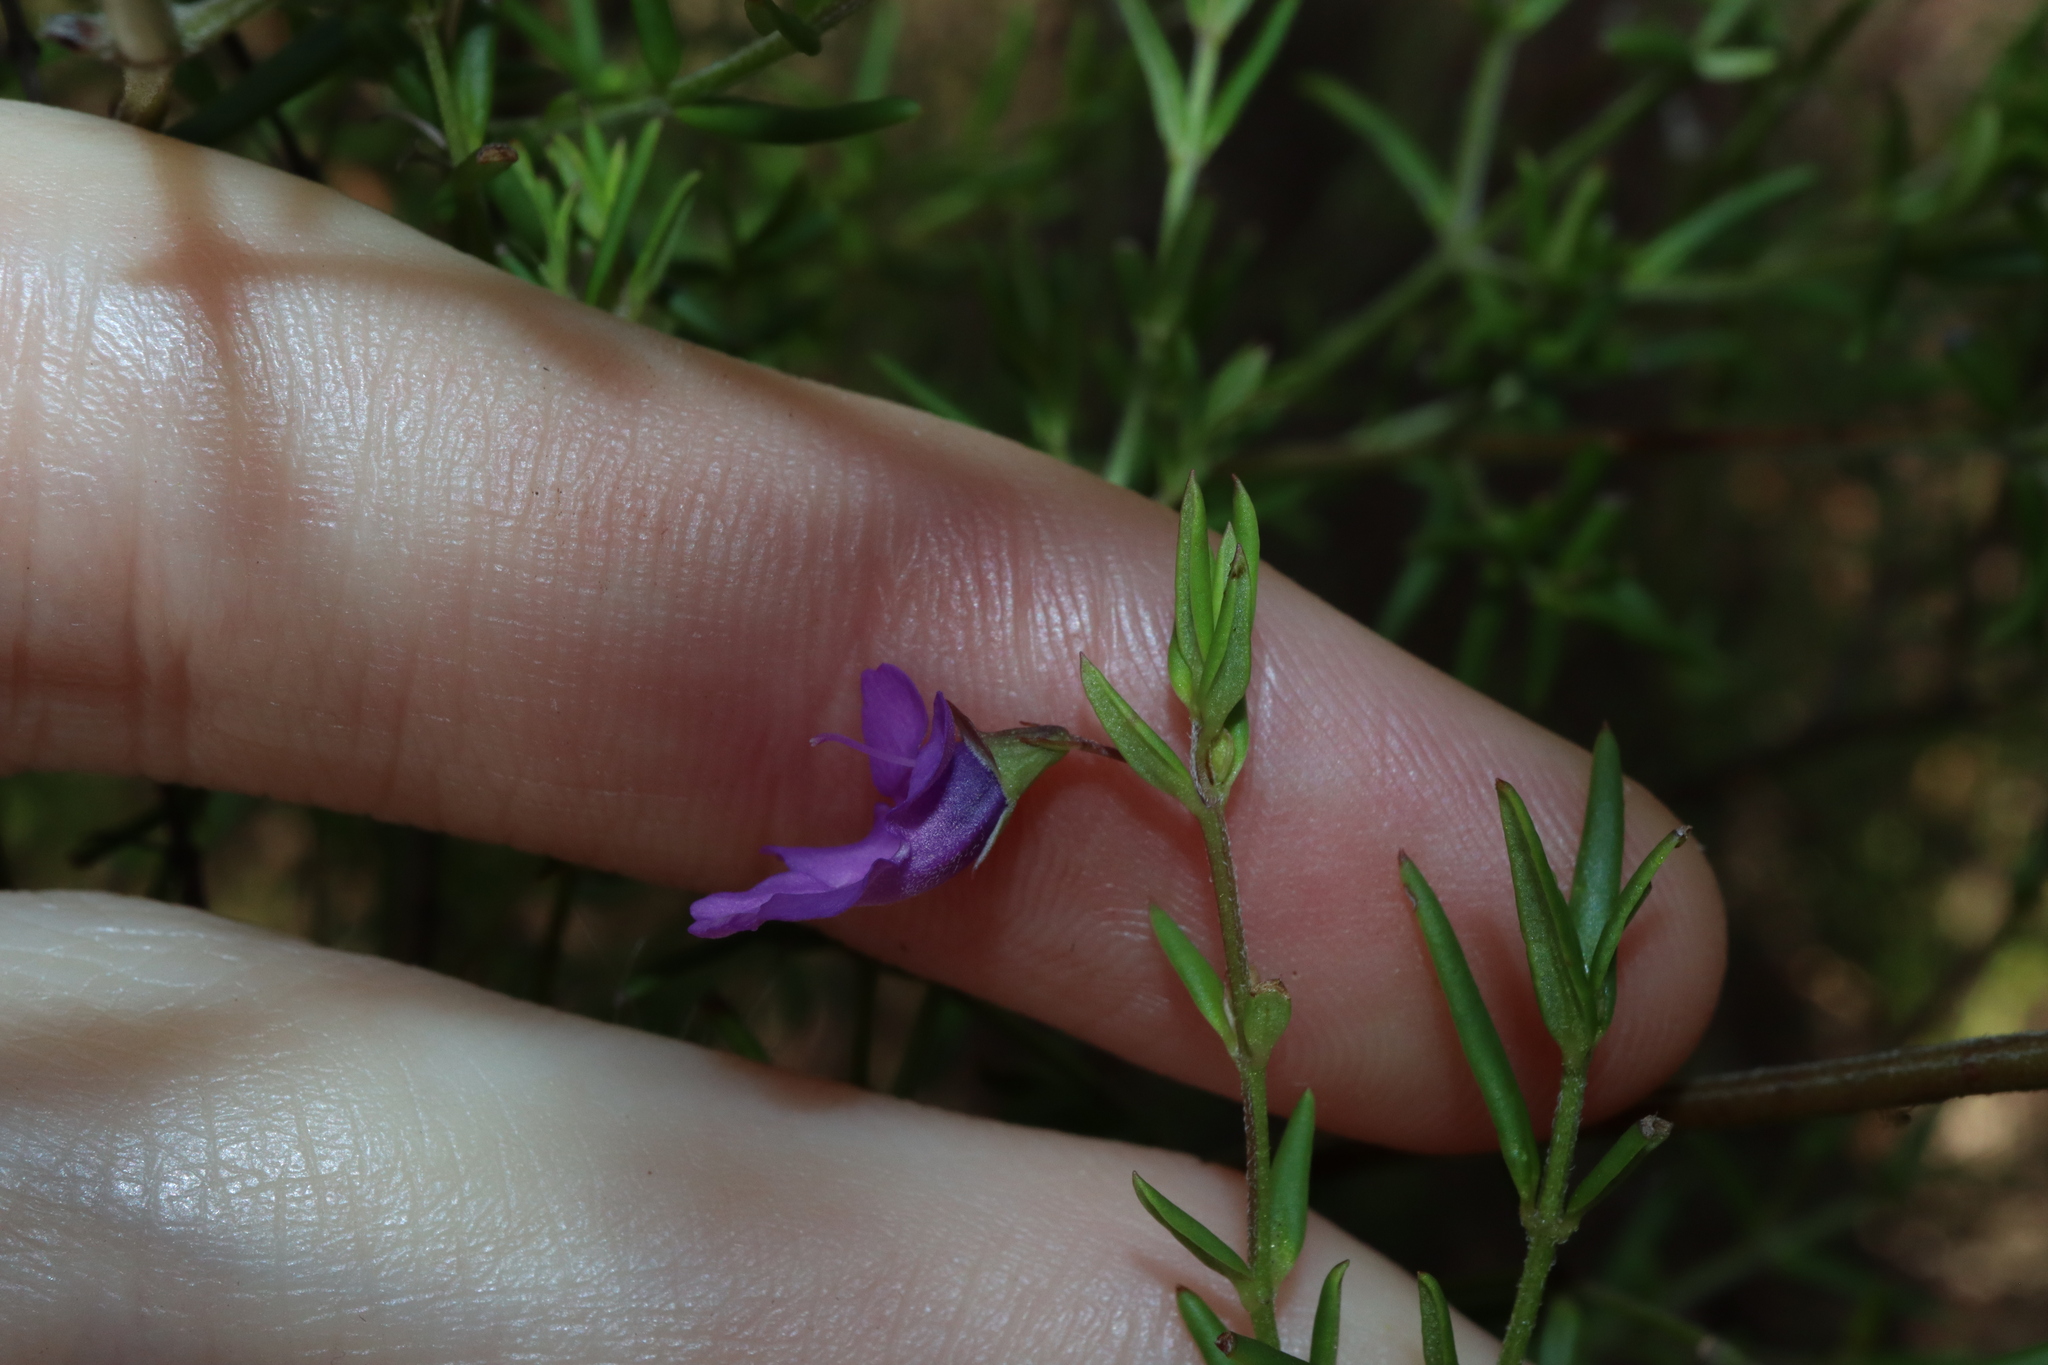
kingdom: Plantae
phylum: Tracheophyta
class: Magnoliopsida
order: Lamiales
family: Lamiaceae
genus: Prostanthera
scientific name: Prostanthera scutellarioides
